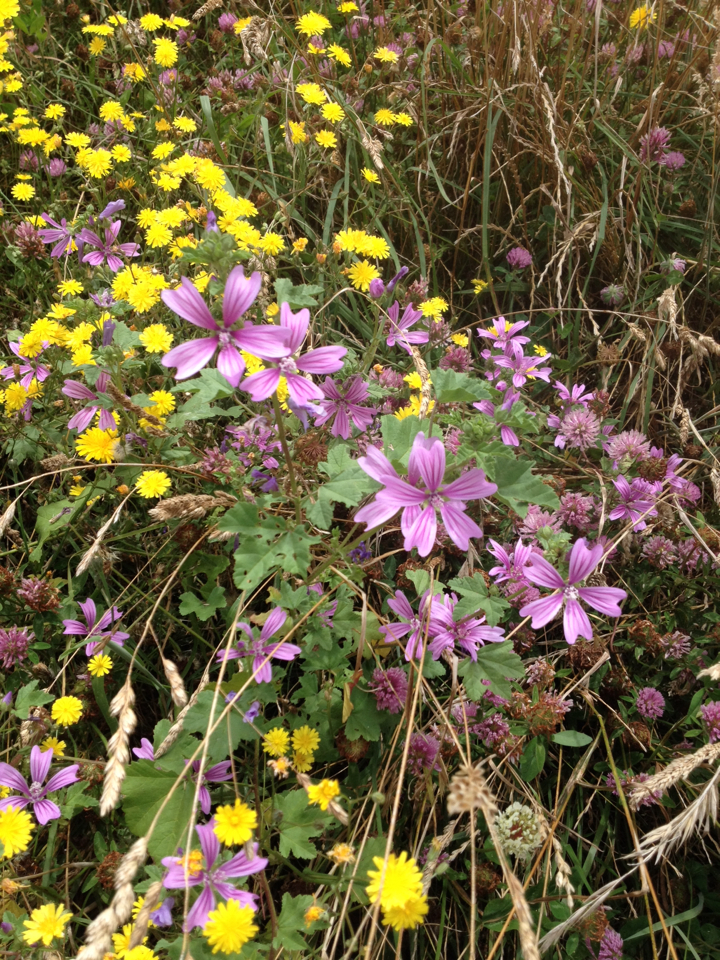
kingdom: Plantae
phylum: Tracheophyta
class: Magnoliopsida
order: Malvales
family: Malvaceae
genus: Malva
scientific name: Malva sylvestris
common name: Common mallow
